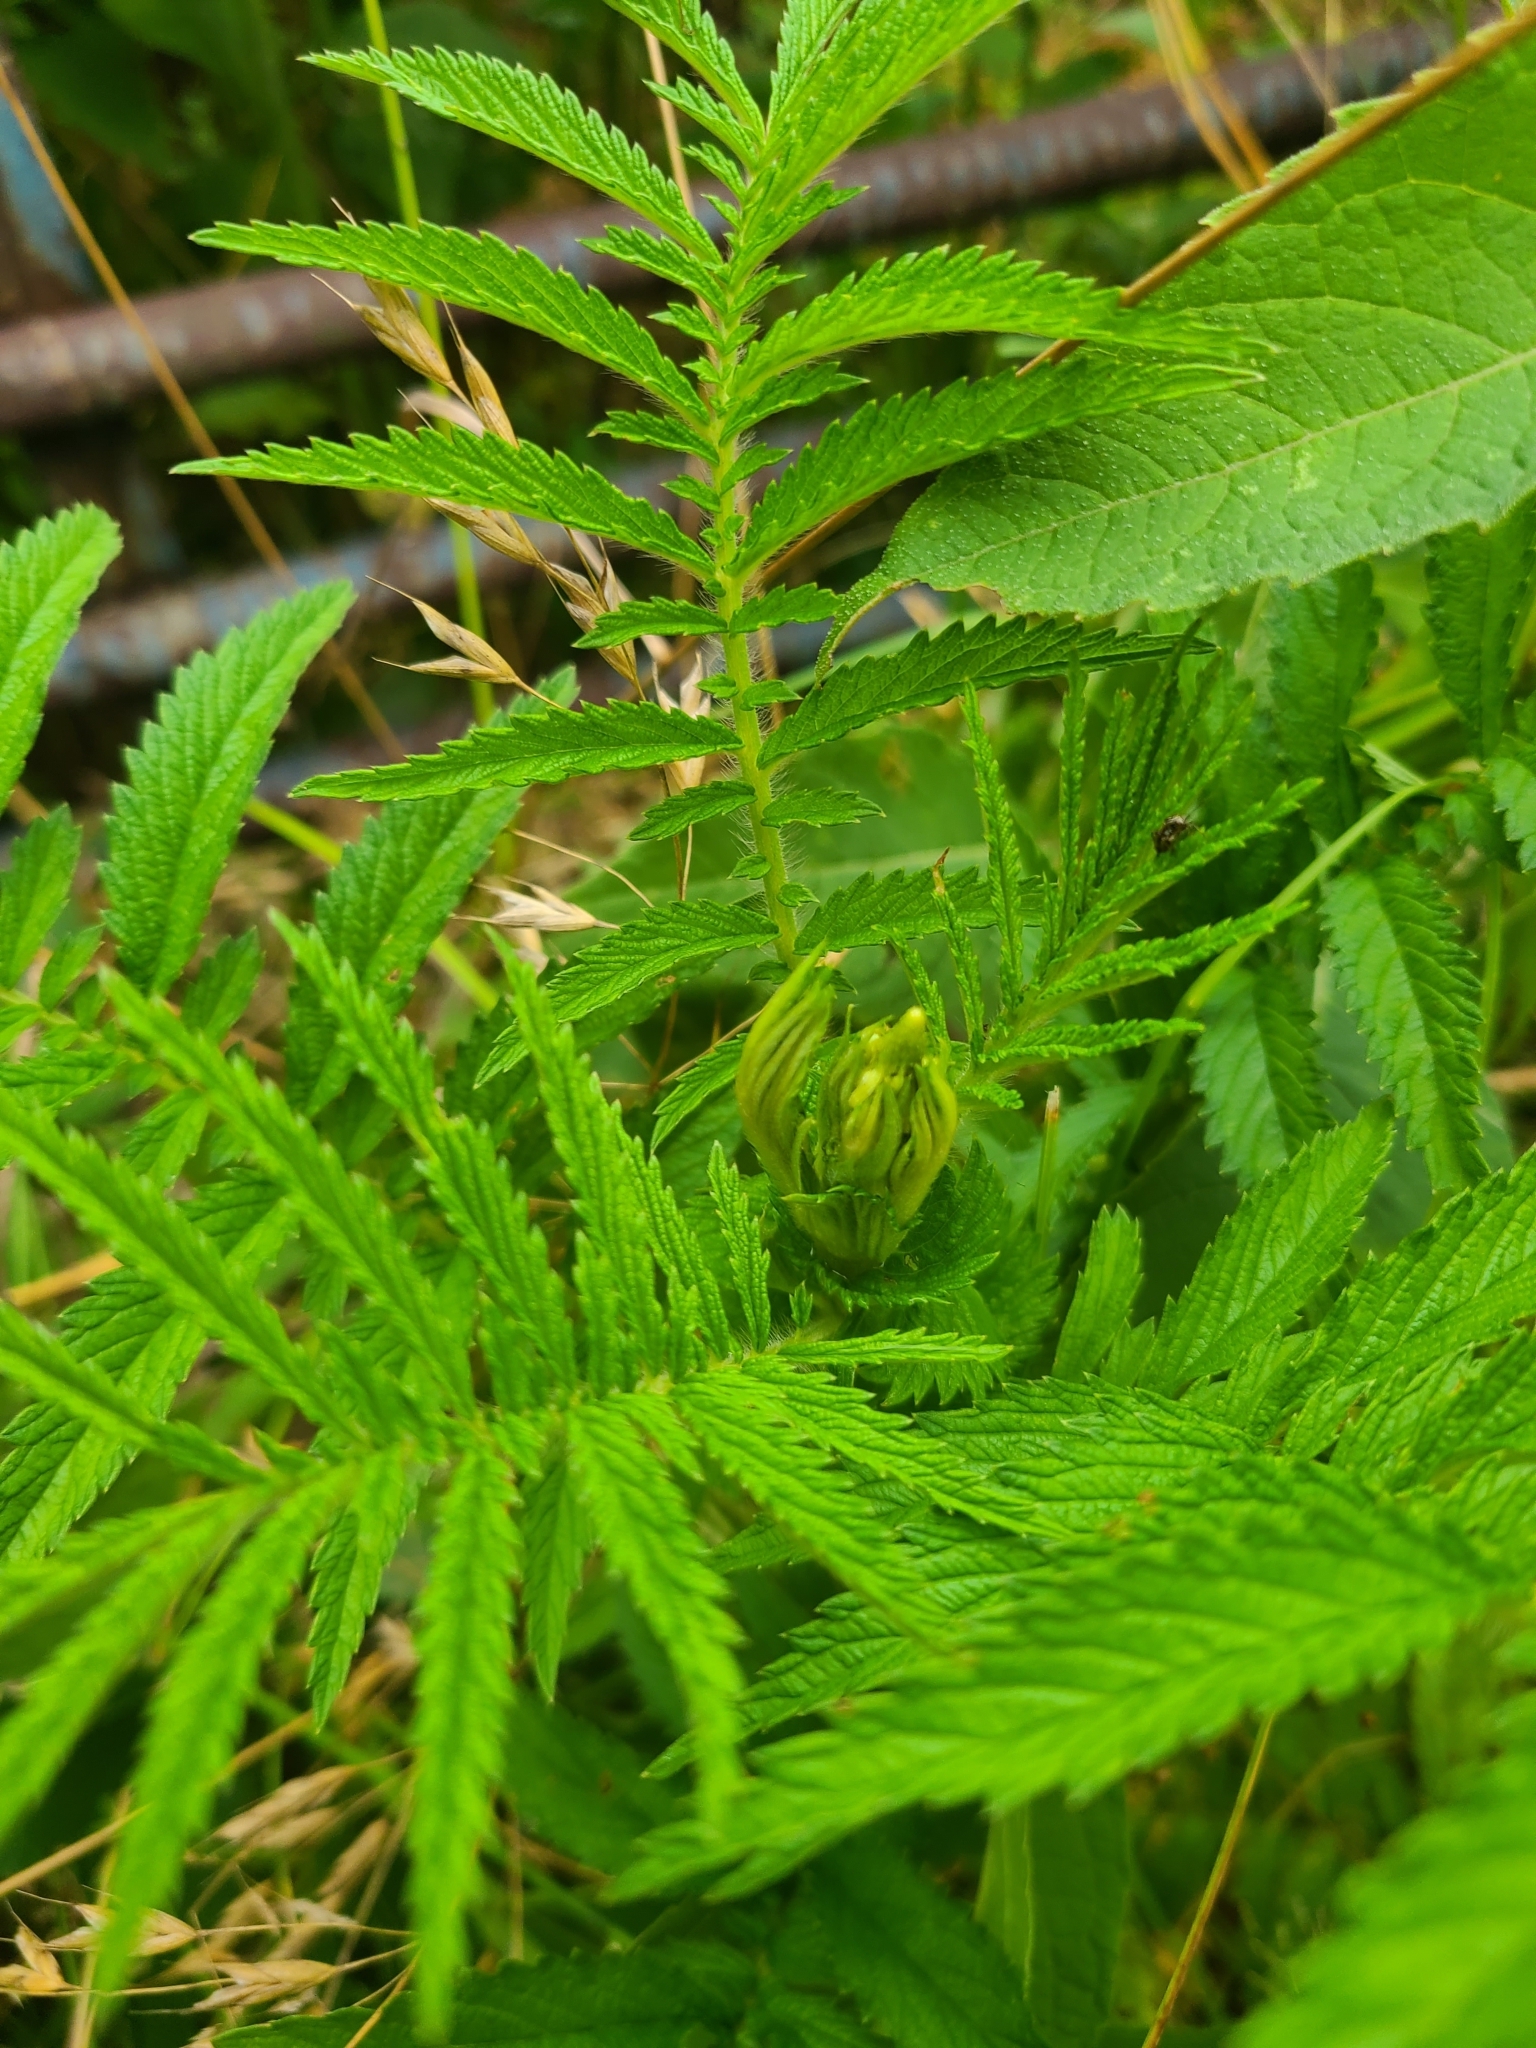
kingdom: Plantae
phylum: Tracheophyta
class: Magnoliopsida
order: Rosales
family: Rosaceae
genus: Agrimonia
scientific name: Agrimonia parviflora
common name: Harvest-lice
